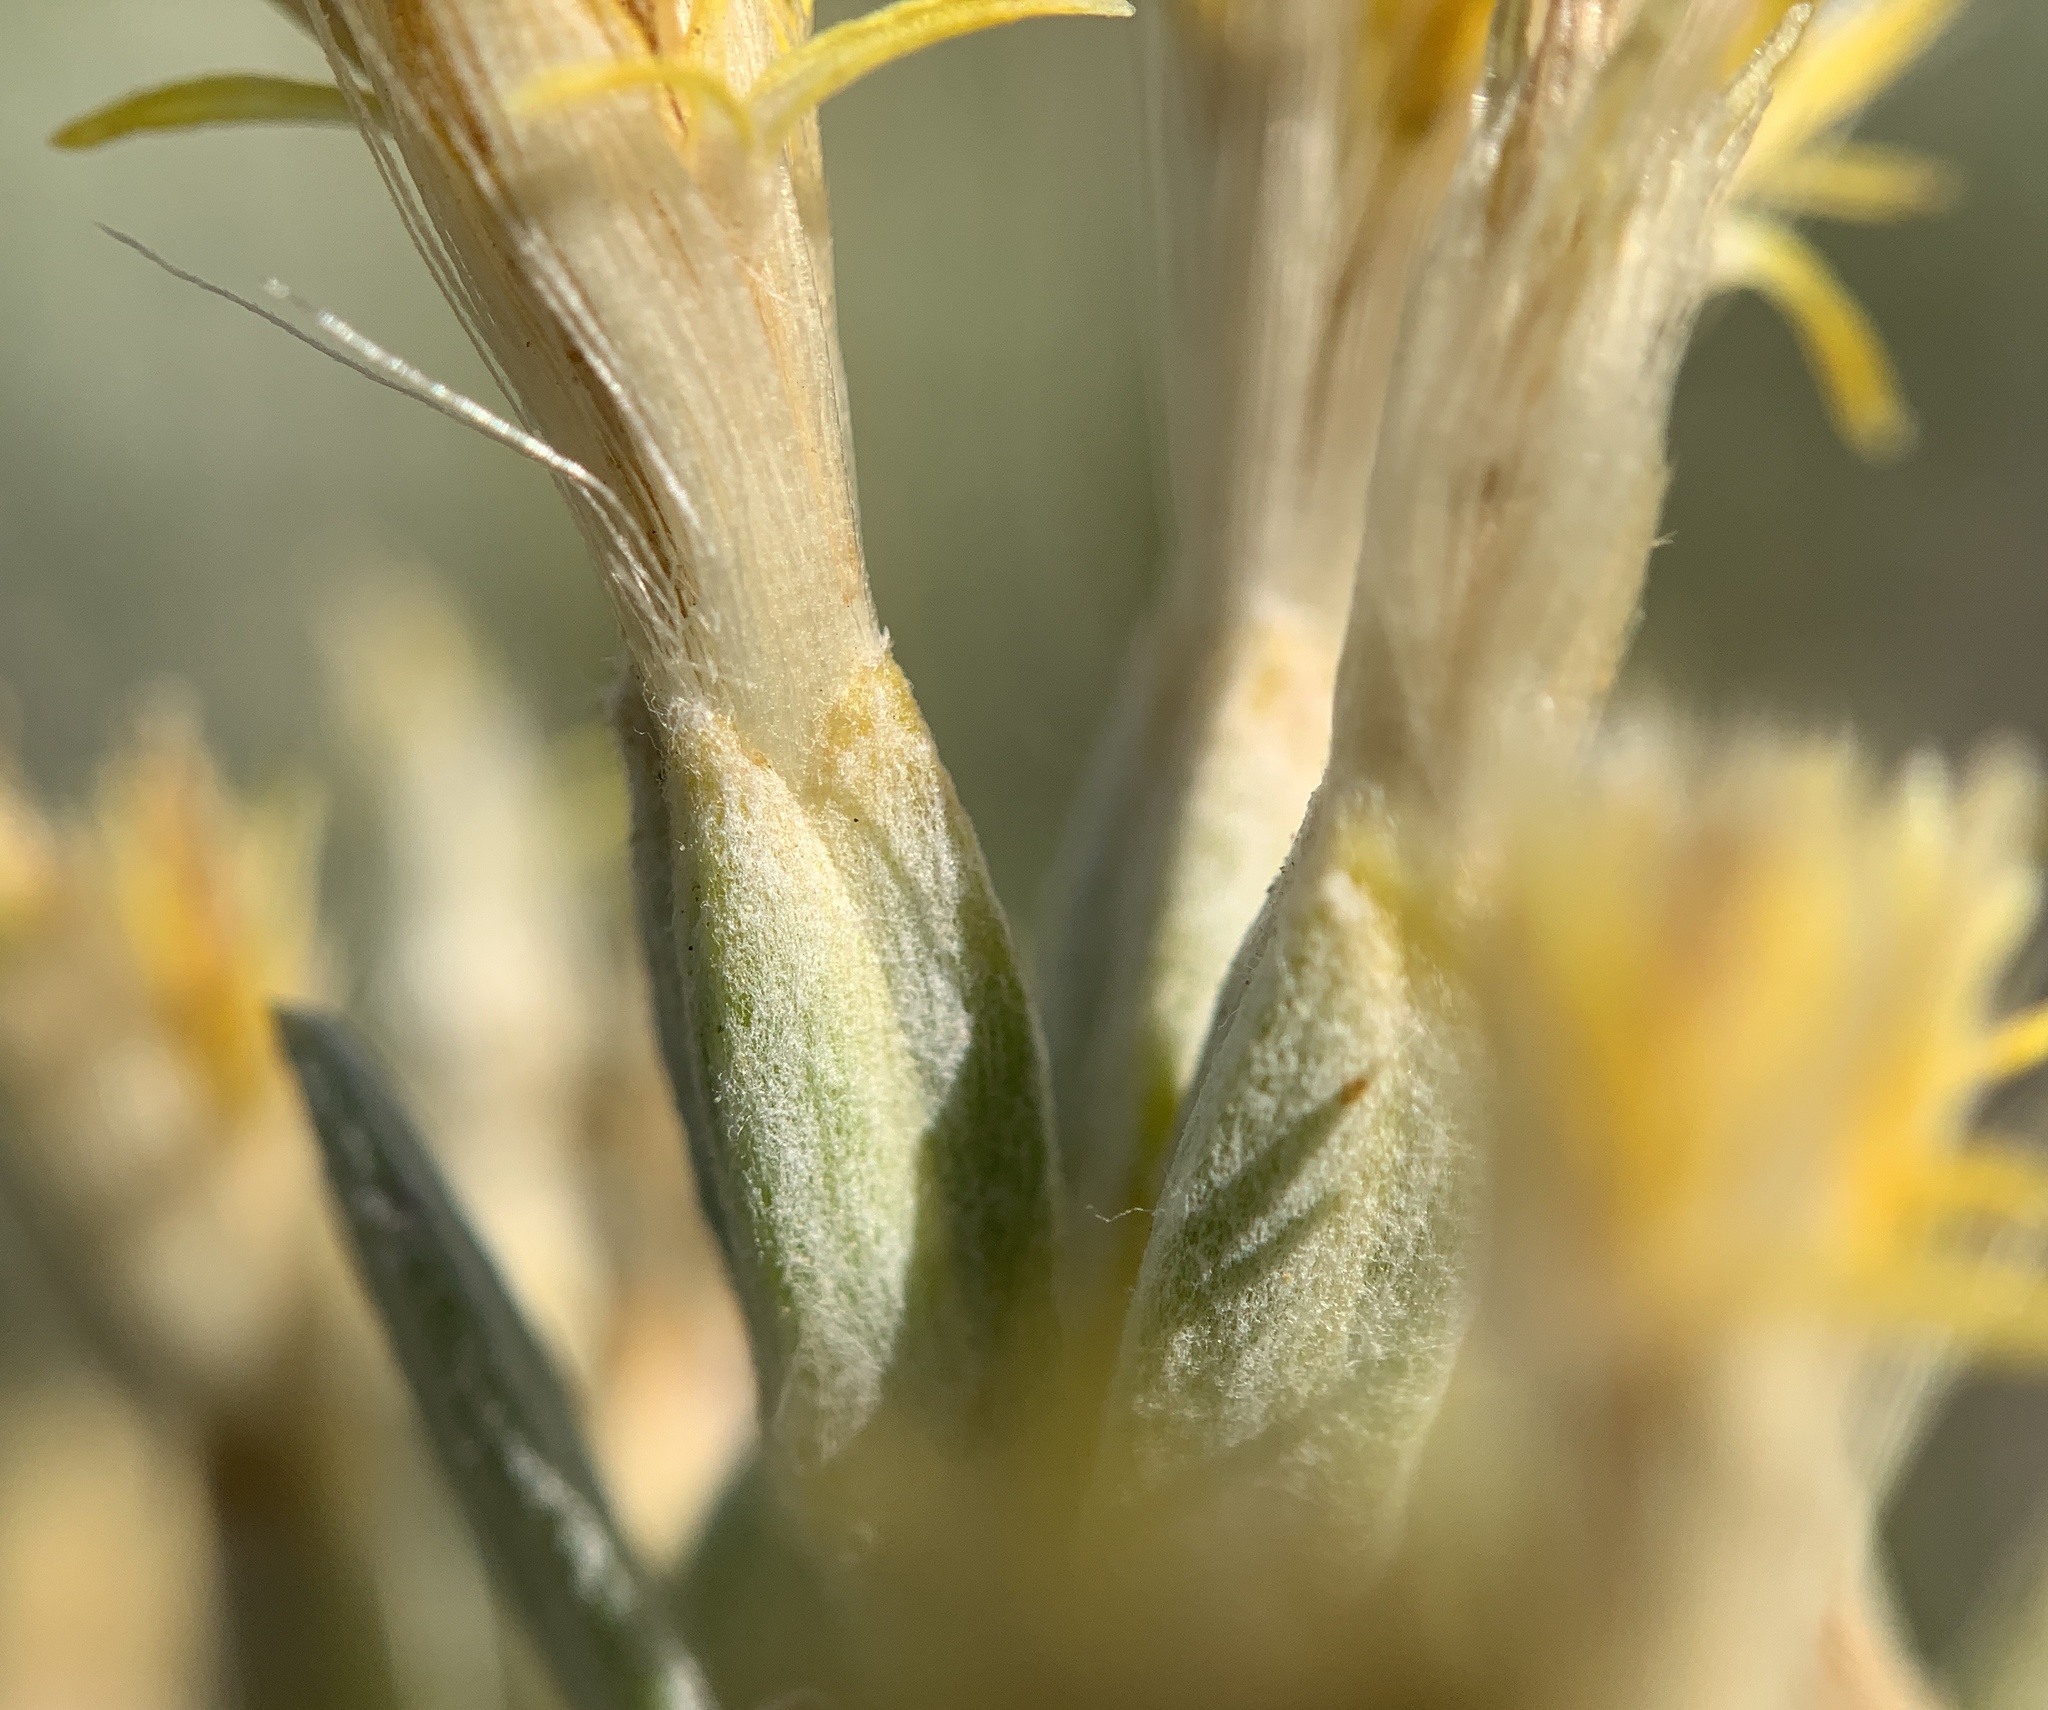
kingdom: Plantae
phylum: Tracheophyta
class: Magnoliopsida
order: Asterales
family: Asteraceae
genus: Tetradymia
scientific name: Tetradymia canescens
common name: Spineless horsebrush
